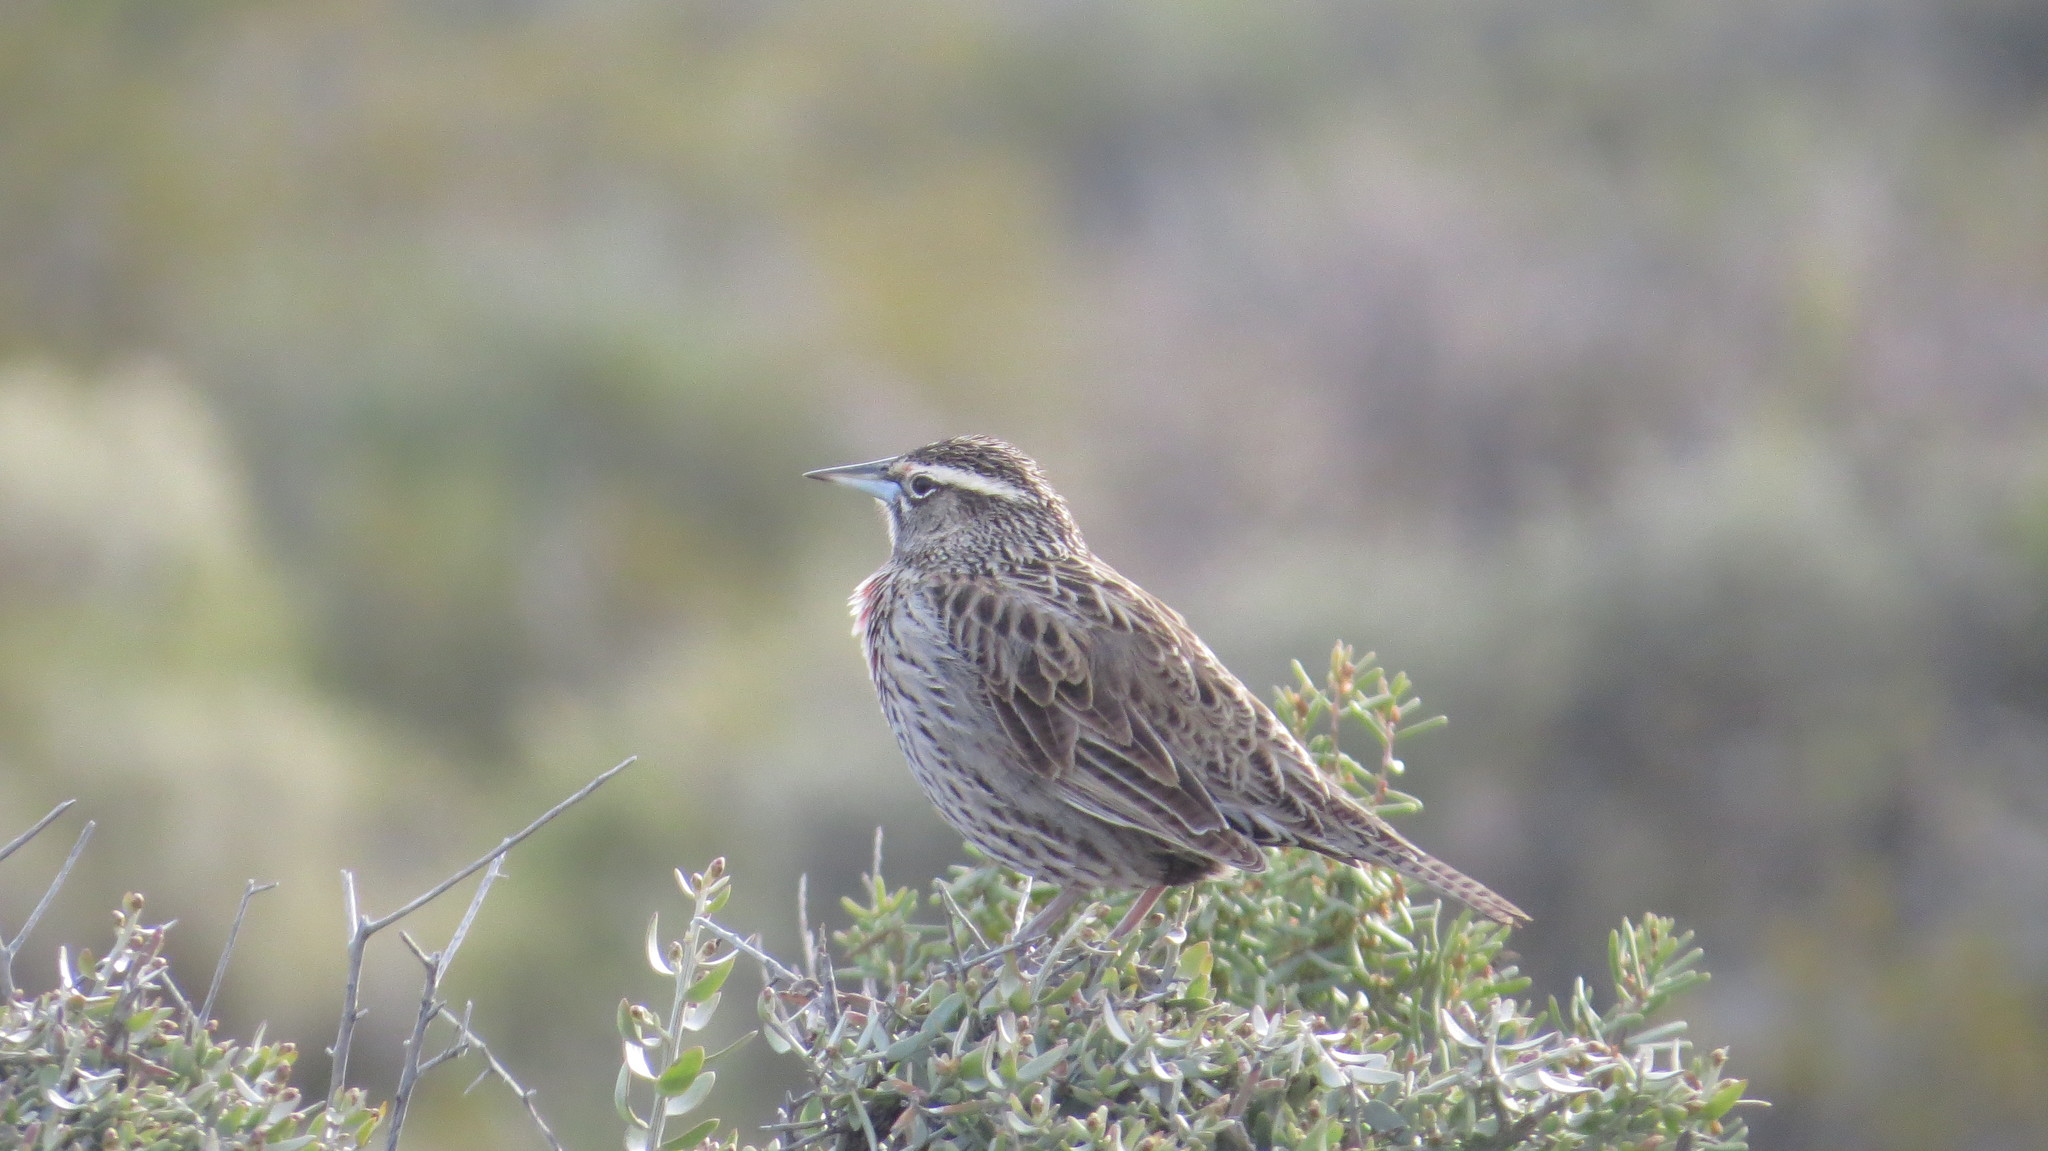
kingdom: Animalia
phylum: Chordata
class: Aves
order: Passeriformes
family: Icteridae
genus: Sturnella
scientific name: Sturnella loyca
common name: Long-tailed meadowlark
